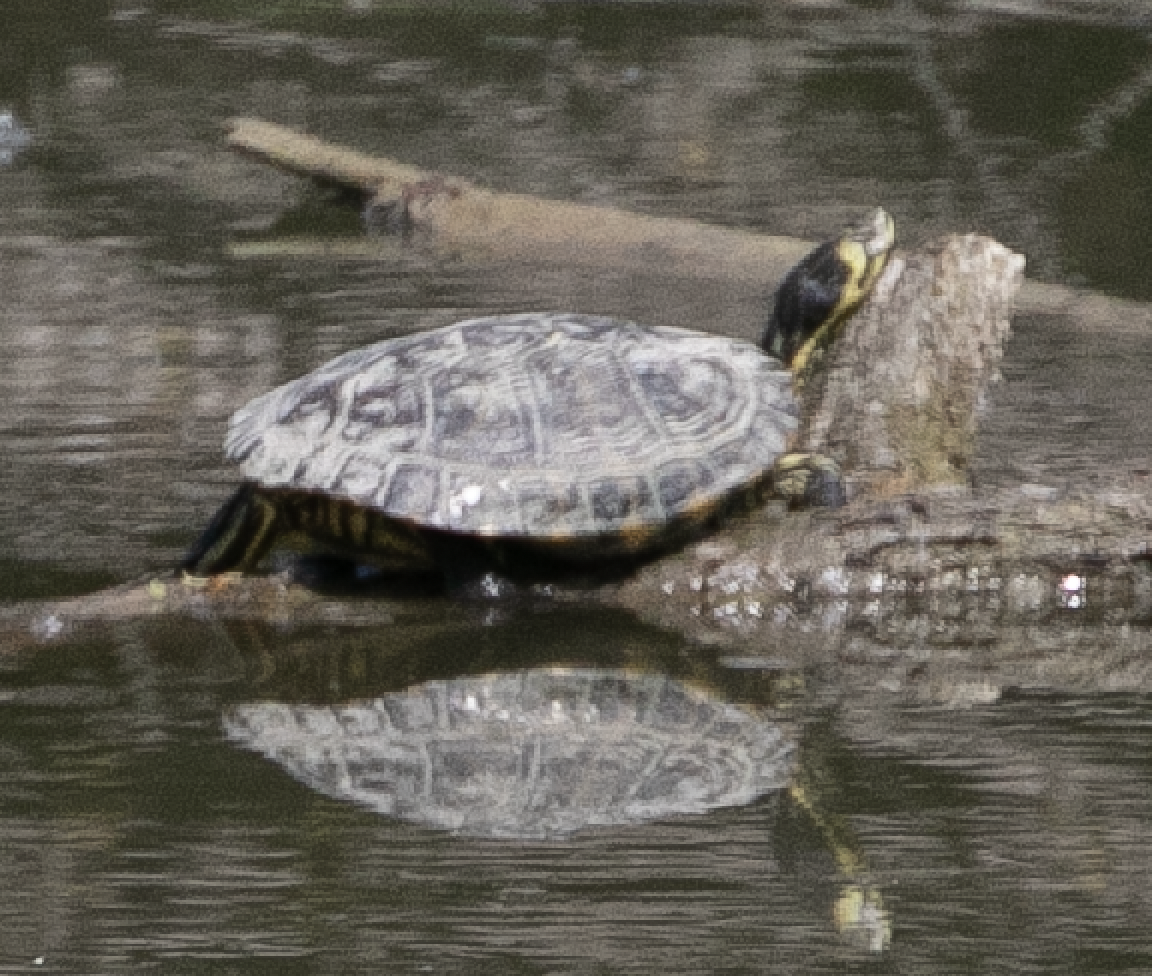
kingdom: Animalia
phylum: Chordata
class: Testudines
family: Emydidae
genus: Trachemys
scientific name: Trachemys scripta
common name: Slider
